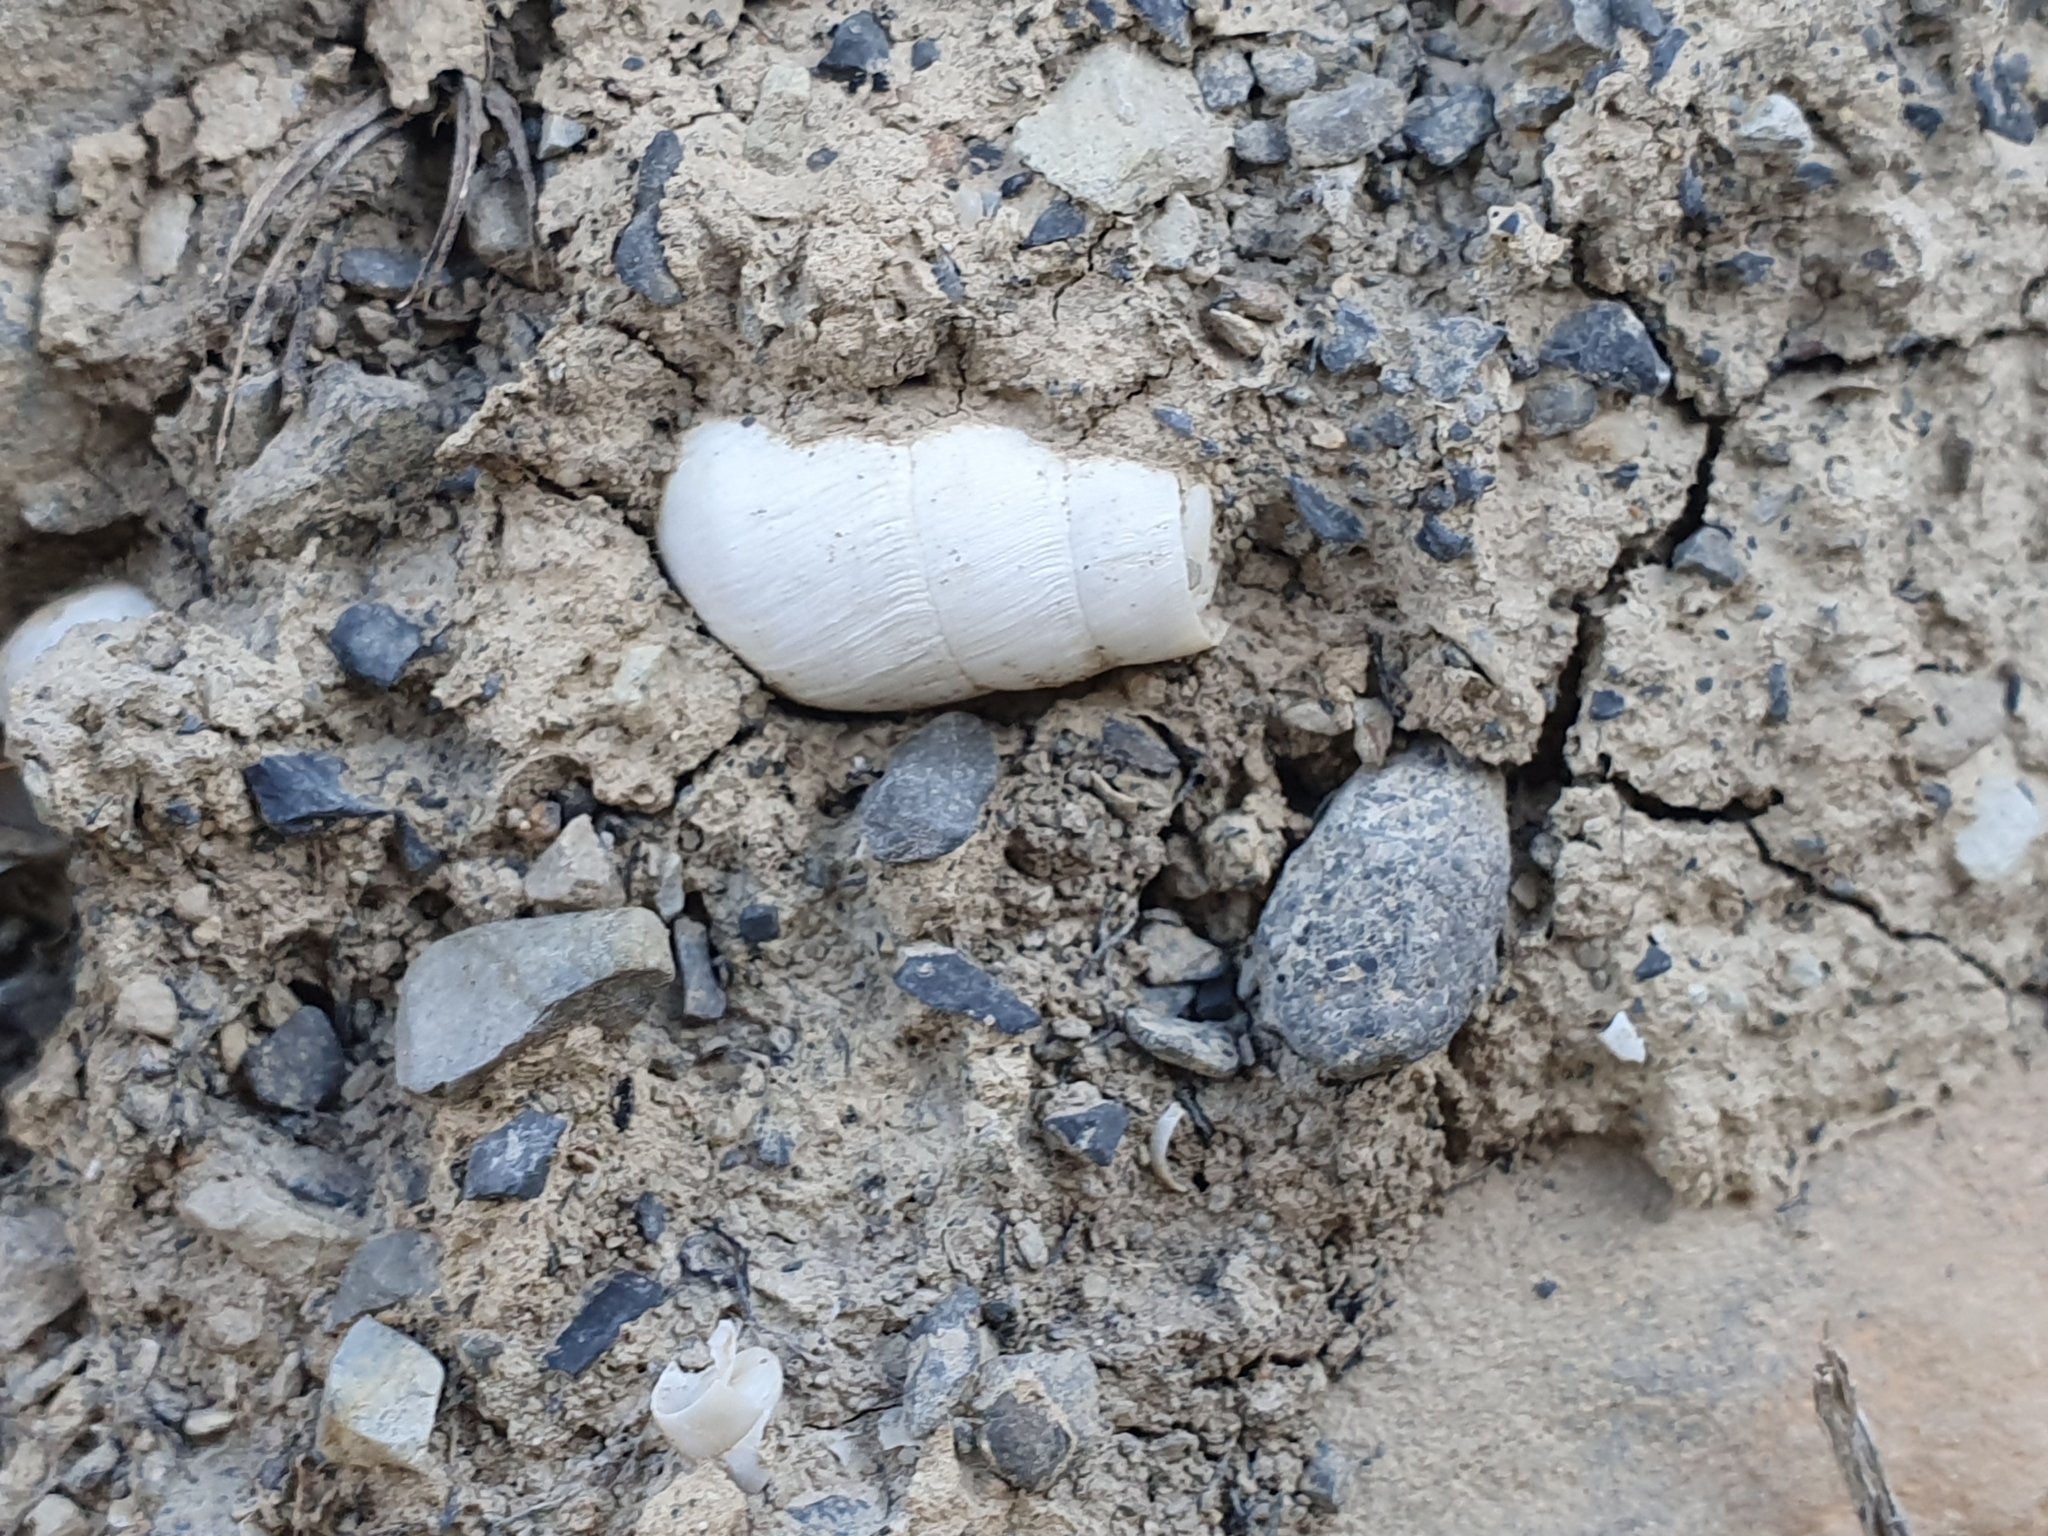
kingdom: Animalia
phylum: Mollusca
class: Gastropoda
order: Stylommatophora
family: Achatinidae
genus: Rumina
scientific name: Rumina decollata
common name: Decollate snail
